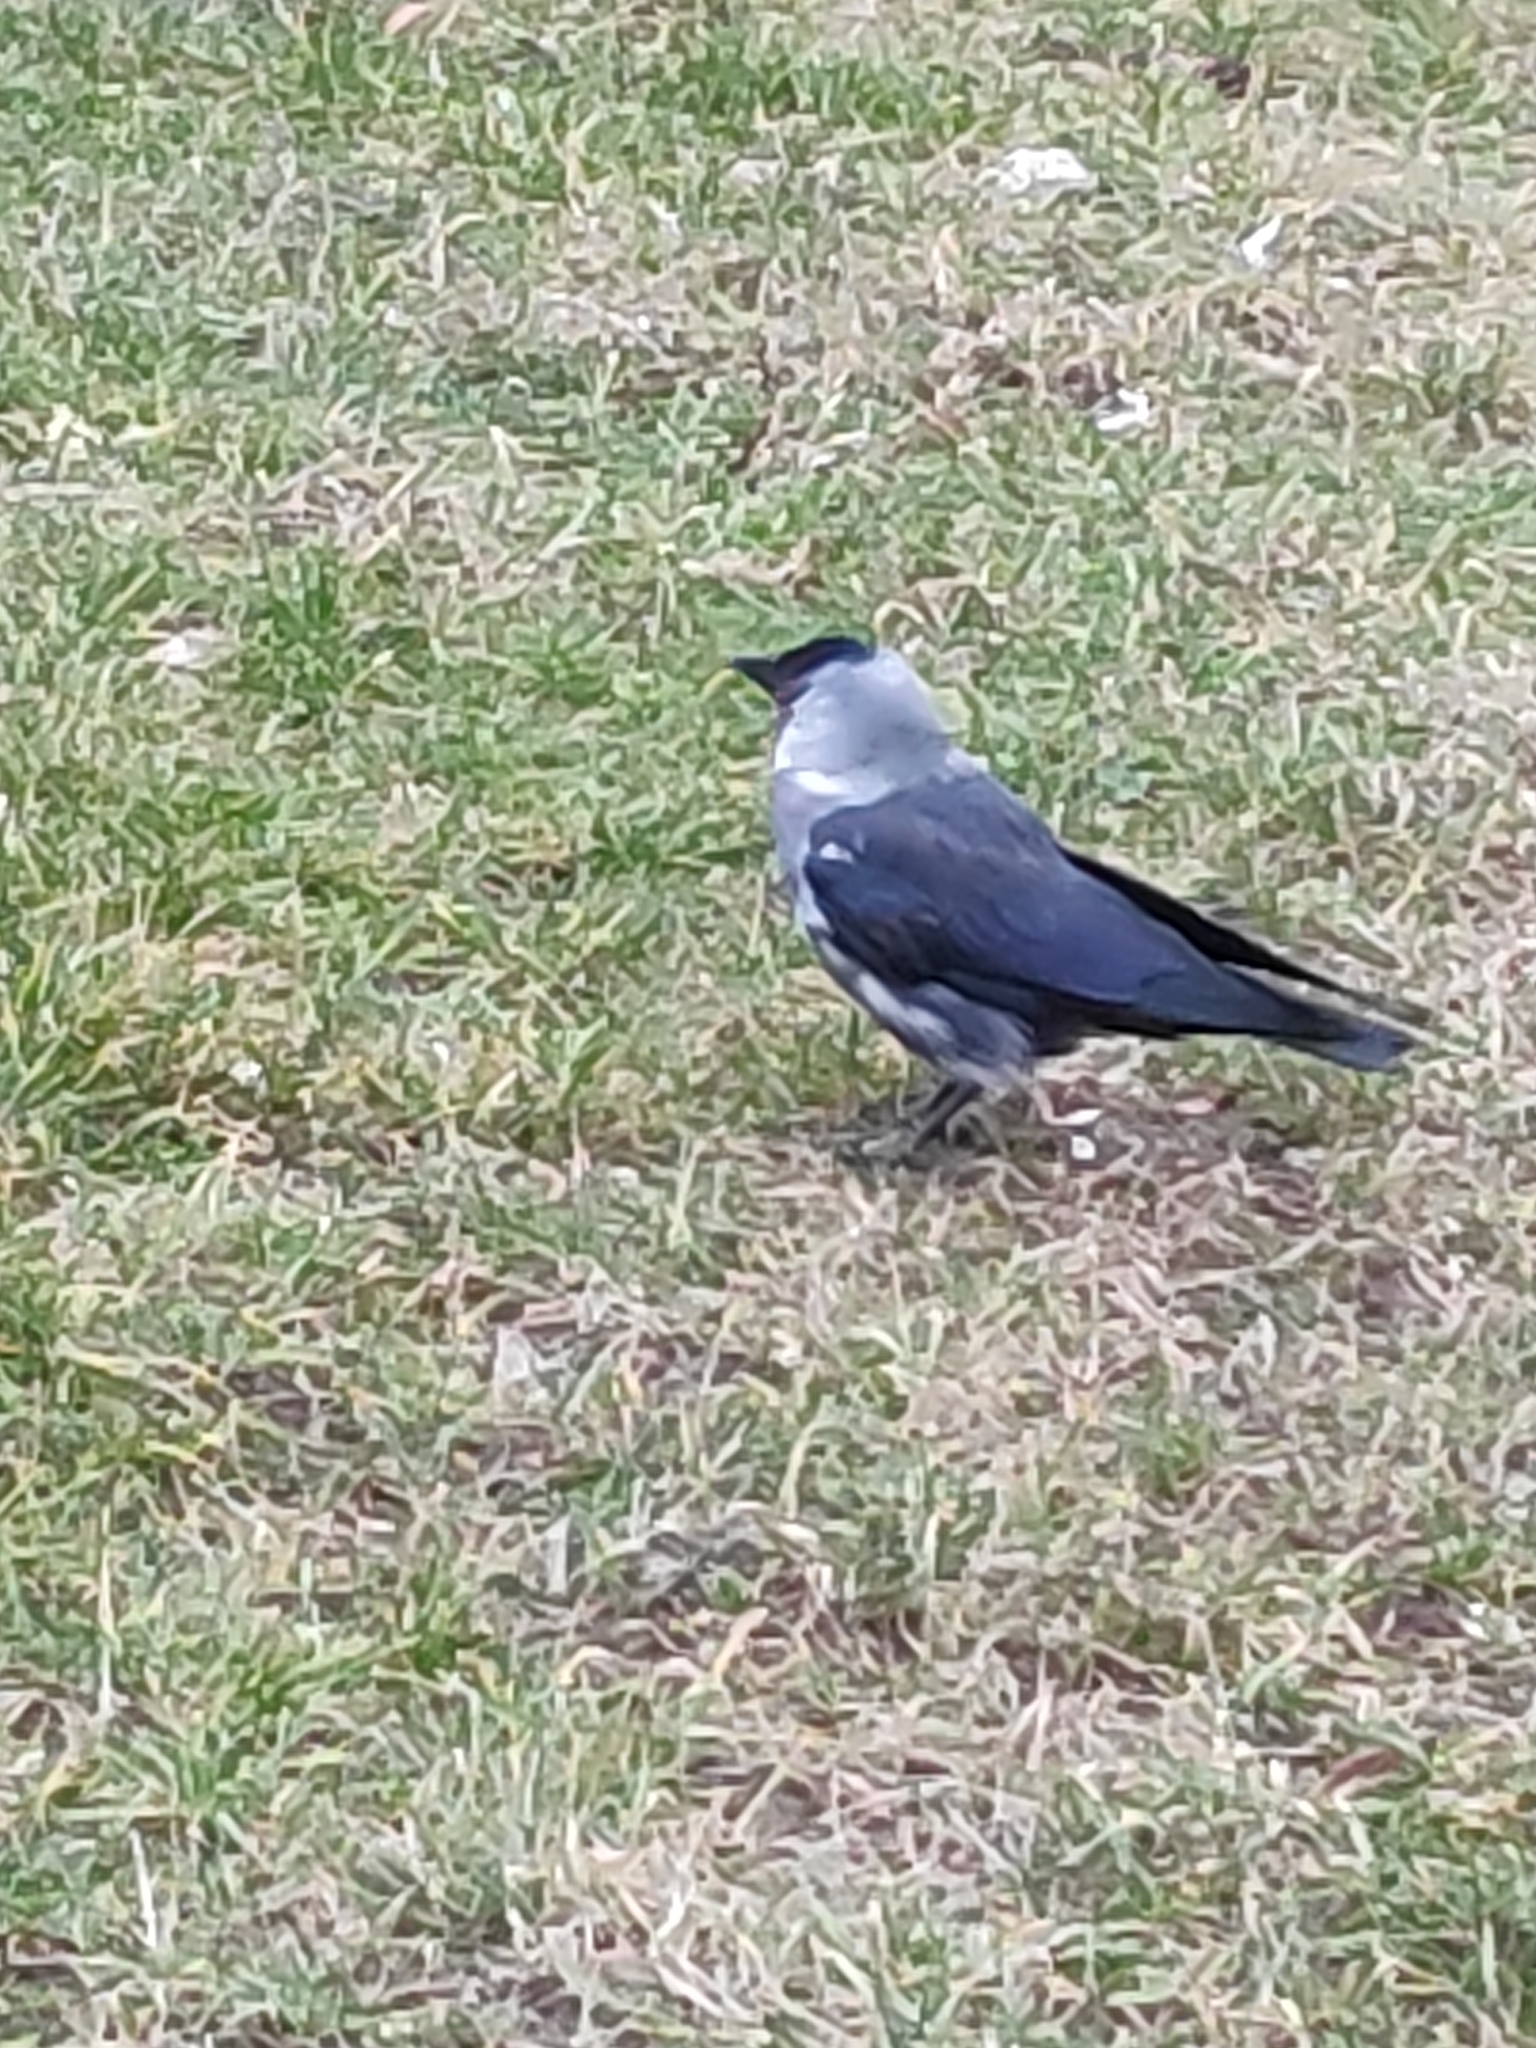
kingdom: Animalia
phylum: Chordata
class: Aves
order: Passeriformes
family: Corvidae
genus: Coloeus
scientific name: Coloeus monedula
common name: Western jackdaw
